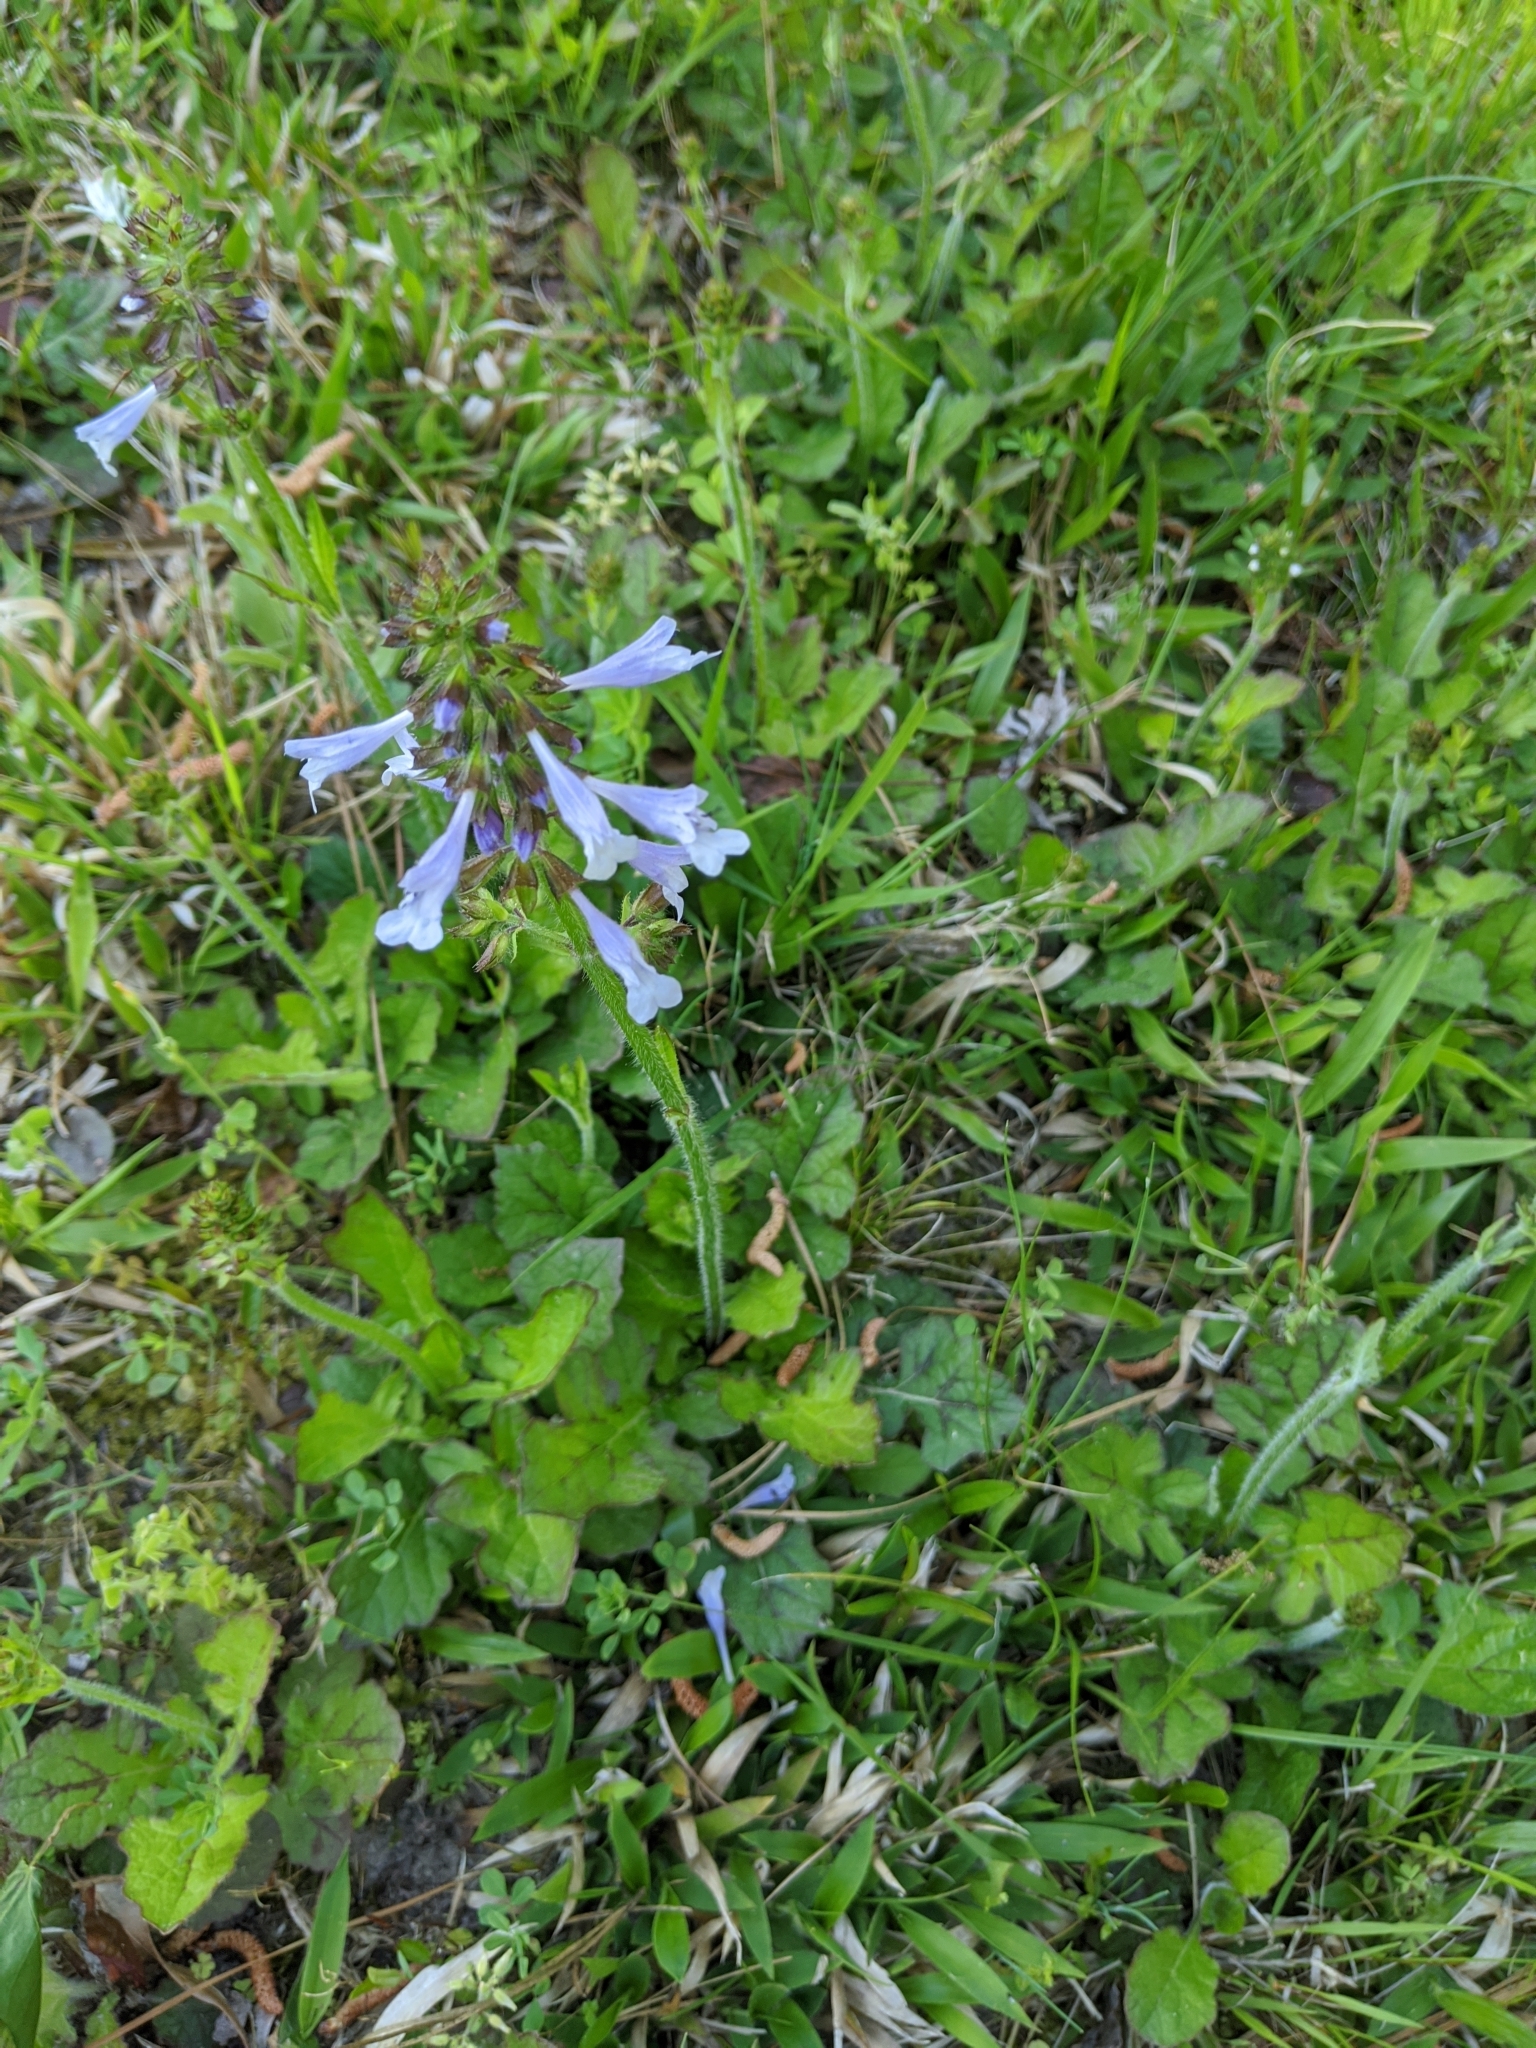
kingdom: Plantae
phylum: Tracheophyta
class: Magnoliopsida
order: Lamiales
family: Lamiaceae
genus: Salvia
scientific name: Salvia lyrata
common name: Cancerweed
